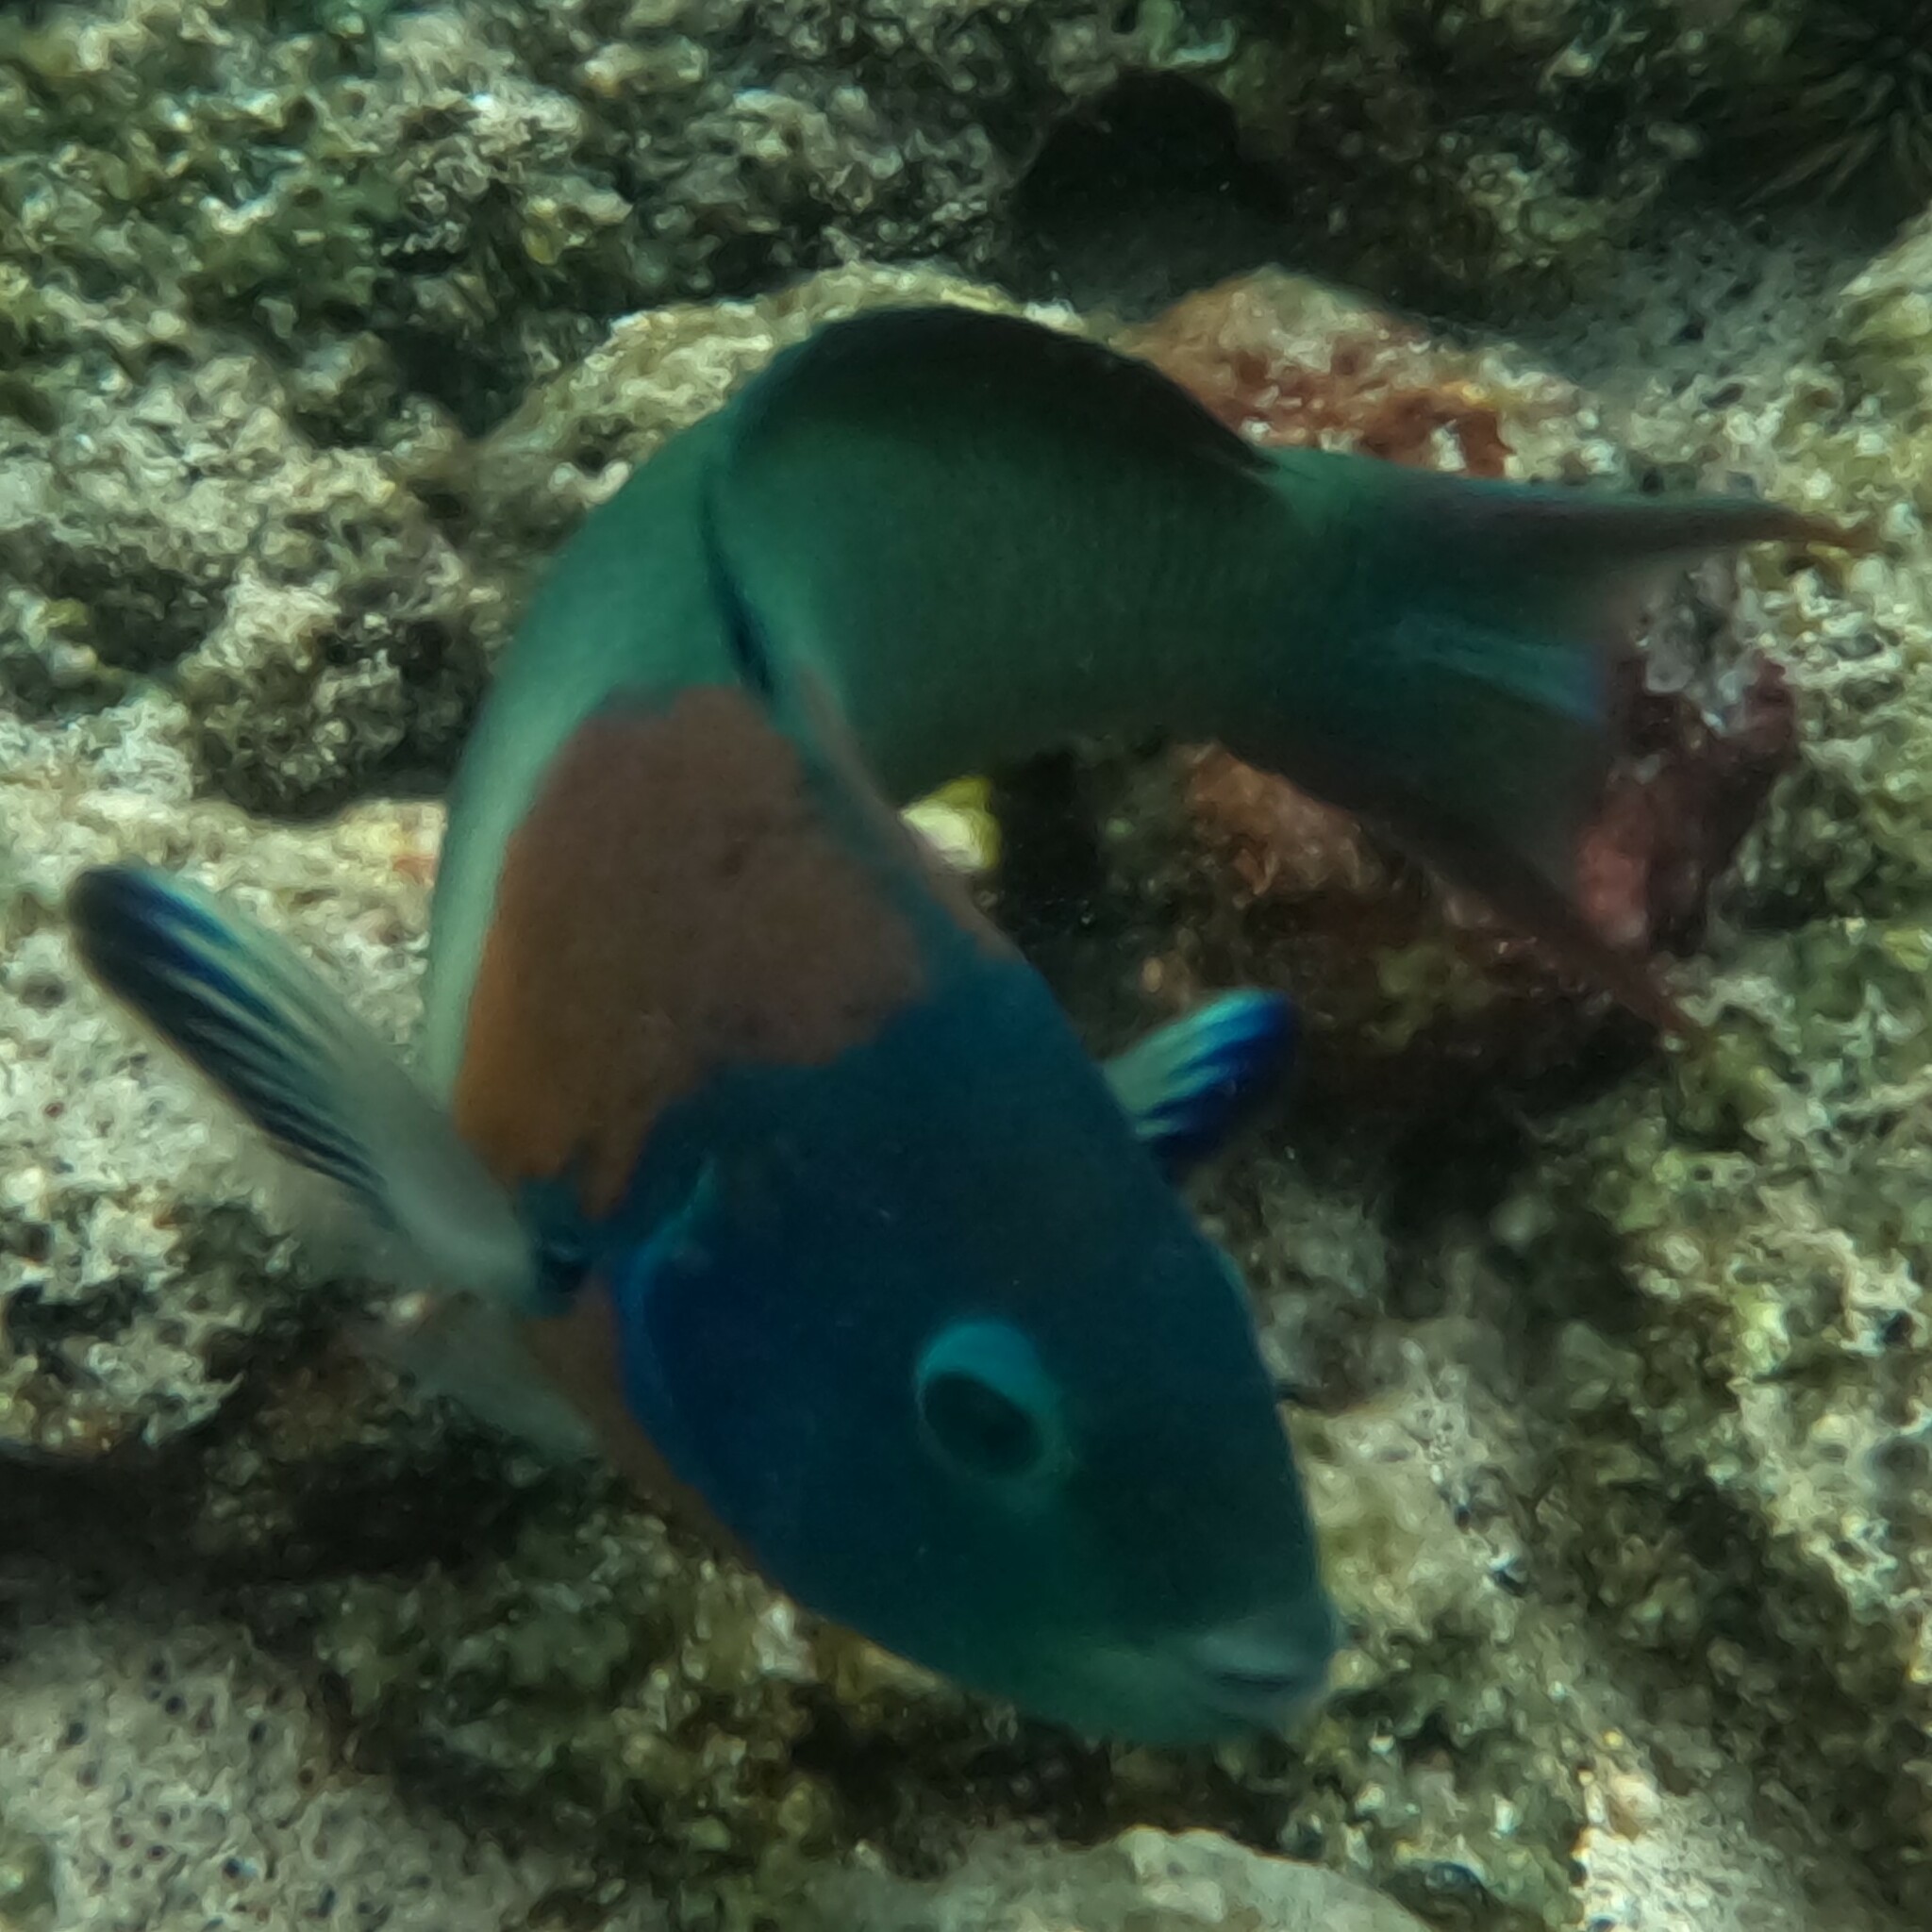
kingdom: Animalia
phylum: Chordata
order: Perciformes
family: Labridae
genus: Thalassoma
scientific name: Thalassoma duperrey
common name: Saddle wrasse
